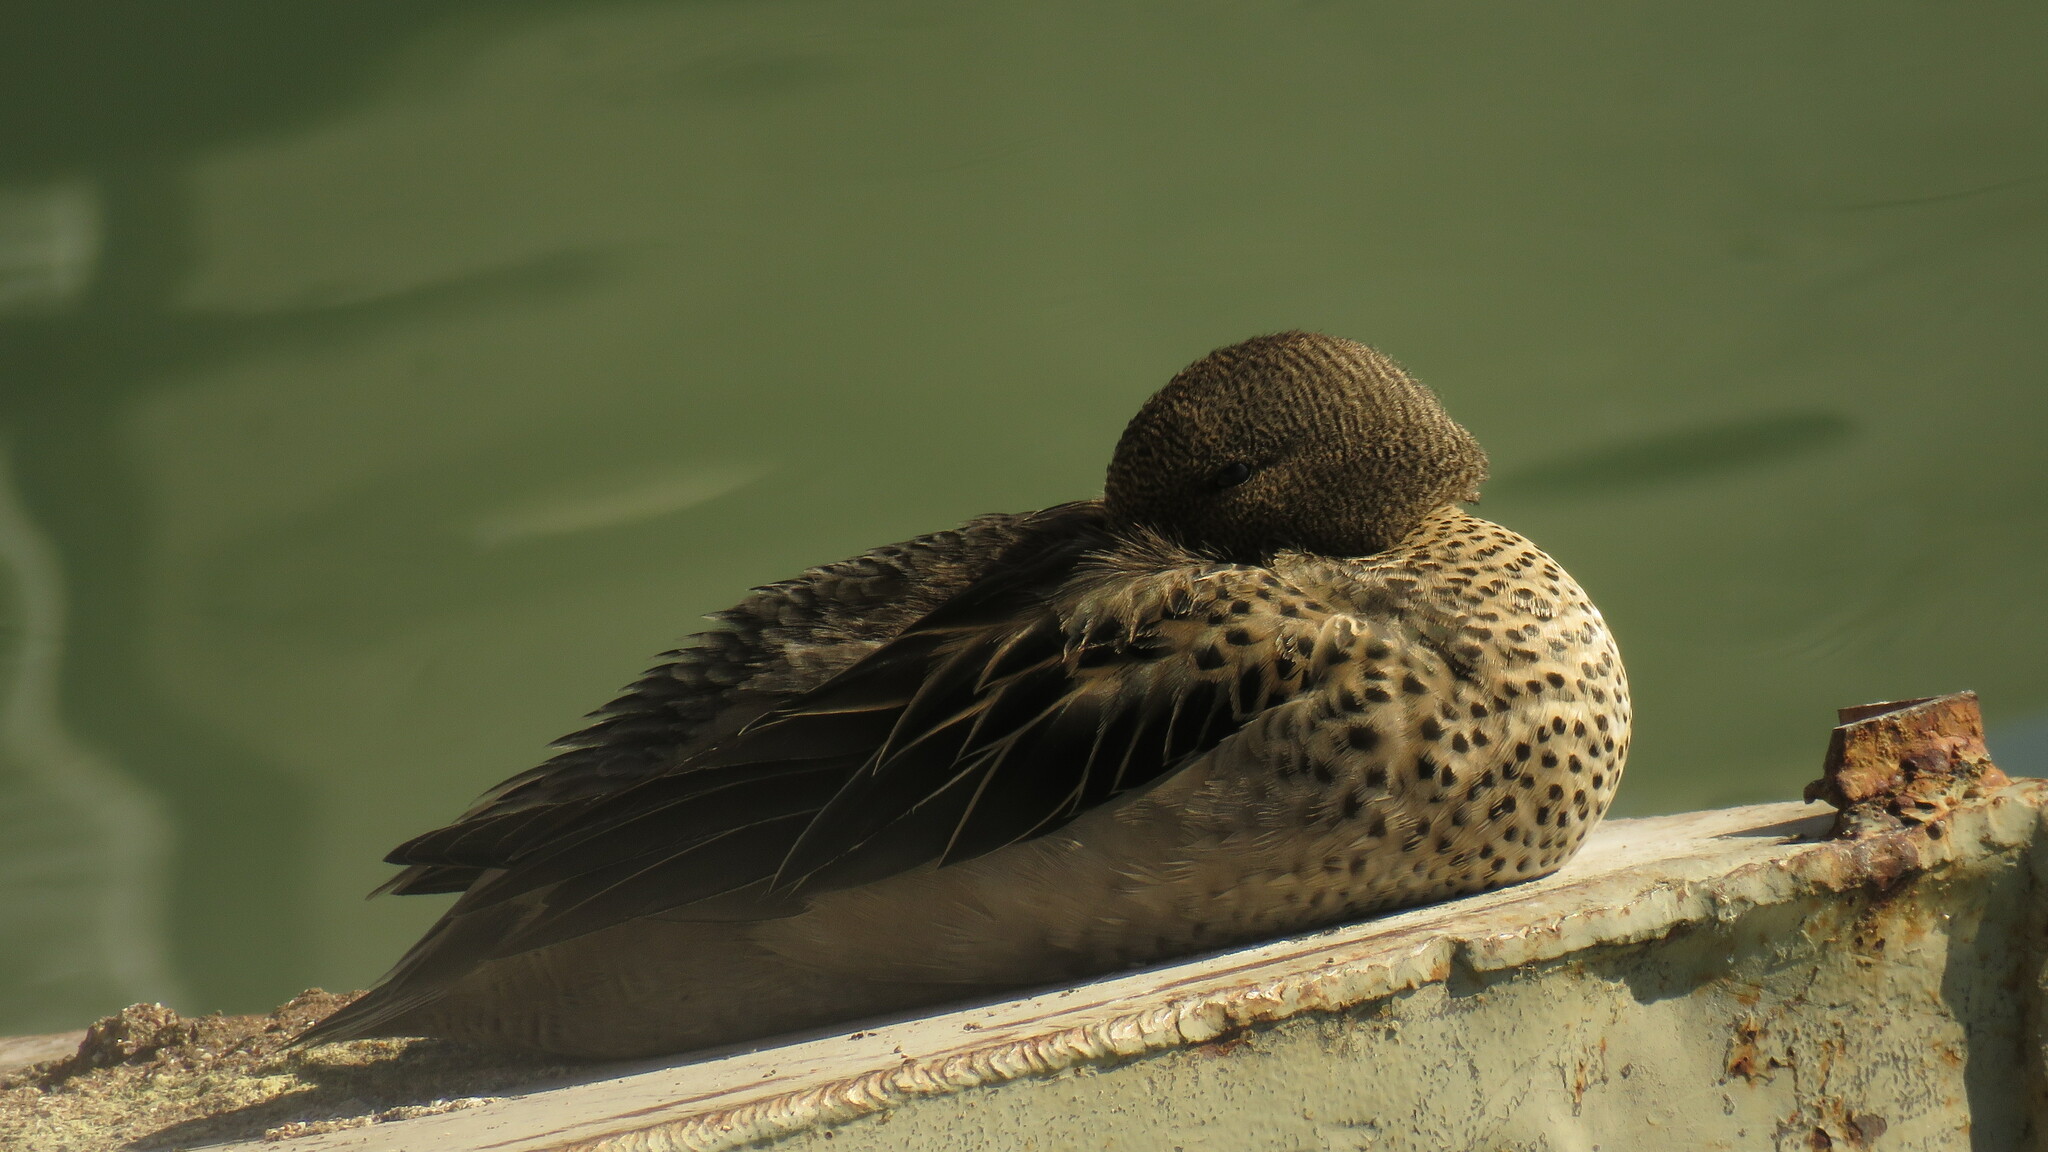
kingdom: Animalia
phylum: Chordata
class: Aves
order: Anseriformes
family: Anatidae
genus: Anas
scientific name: Anas flavirostris
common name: Yellow-billed teal
